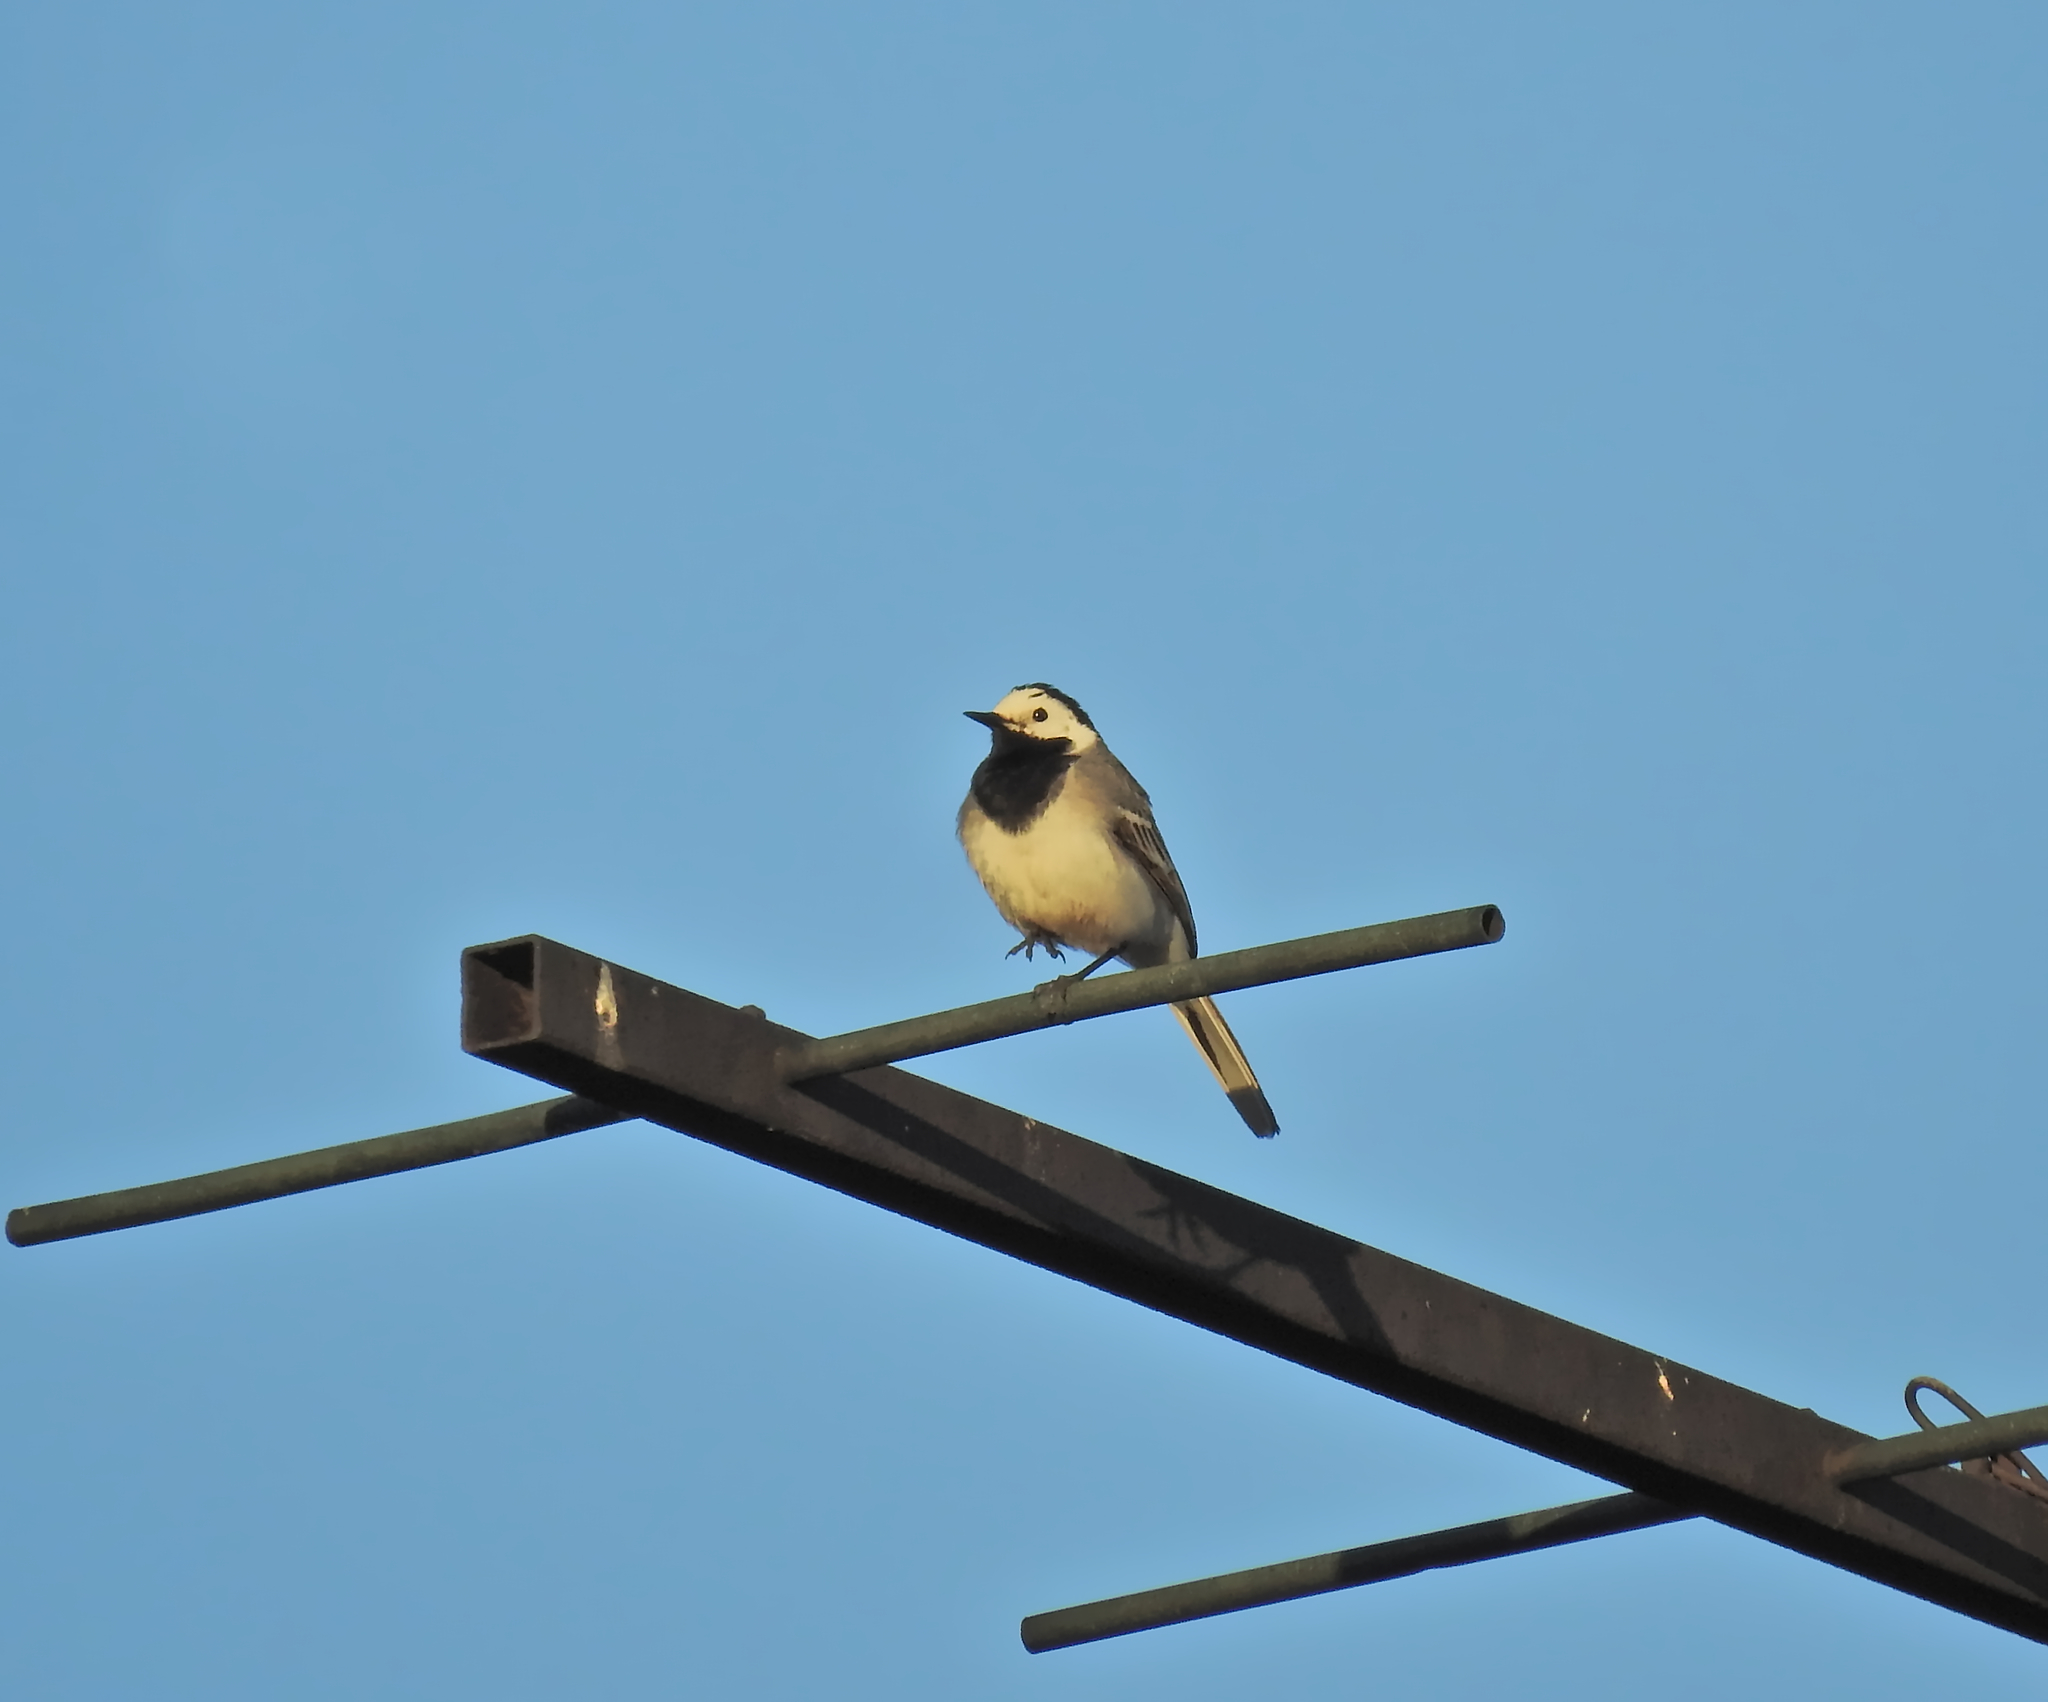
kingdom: Animalia
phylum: Chordata
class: Aves
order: Passeriformes
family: Motacillidae
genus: Motacilla
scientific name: Motacilla alba
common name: White wagtail
